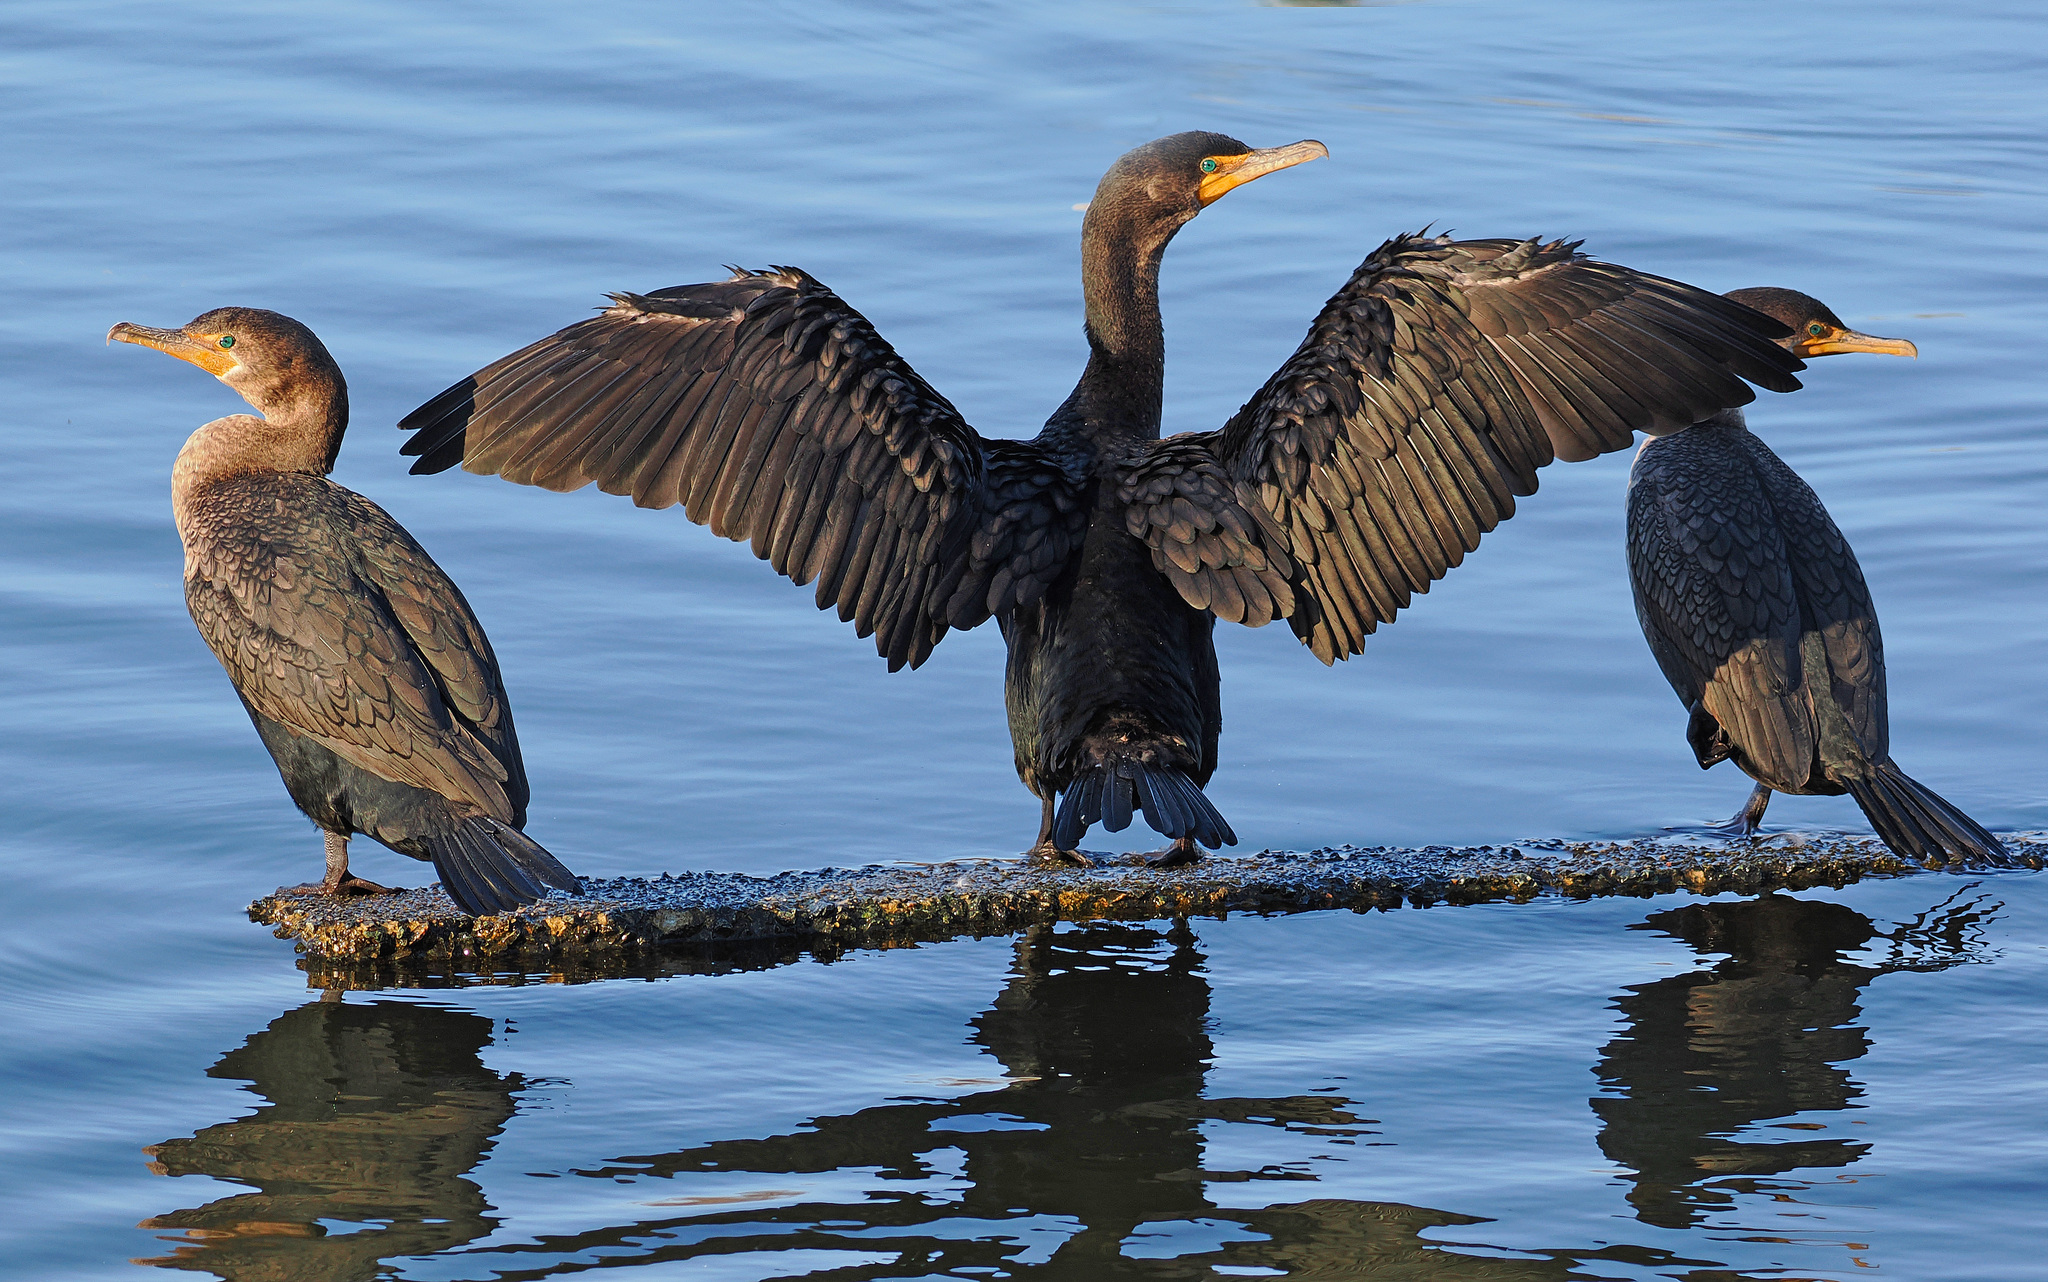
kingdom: Animalia
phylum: Chordata
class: Aves
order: Suliformes
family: Phalacrocoracidae
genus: Phalacrocorax
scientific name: Phalacrocorax auritus
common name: Double-crested cormorant
